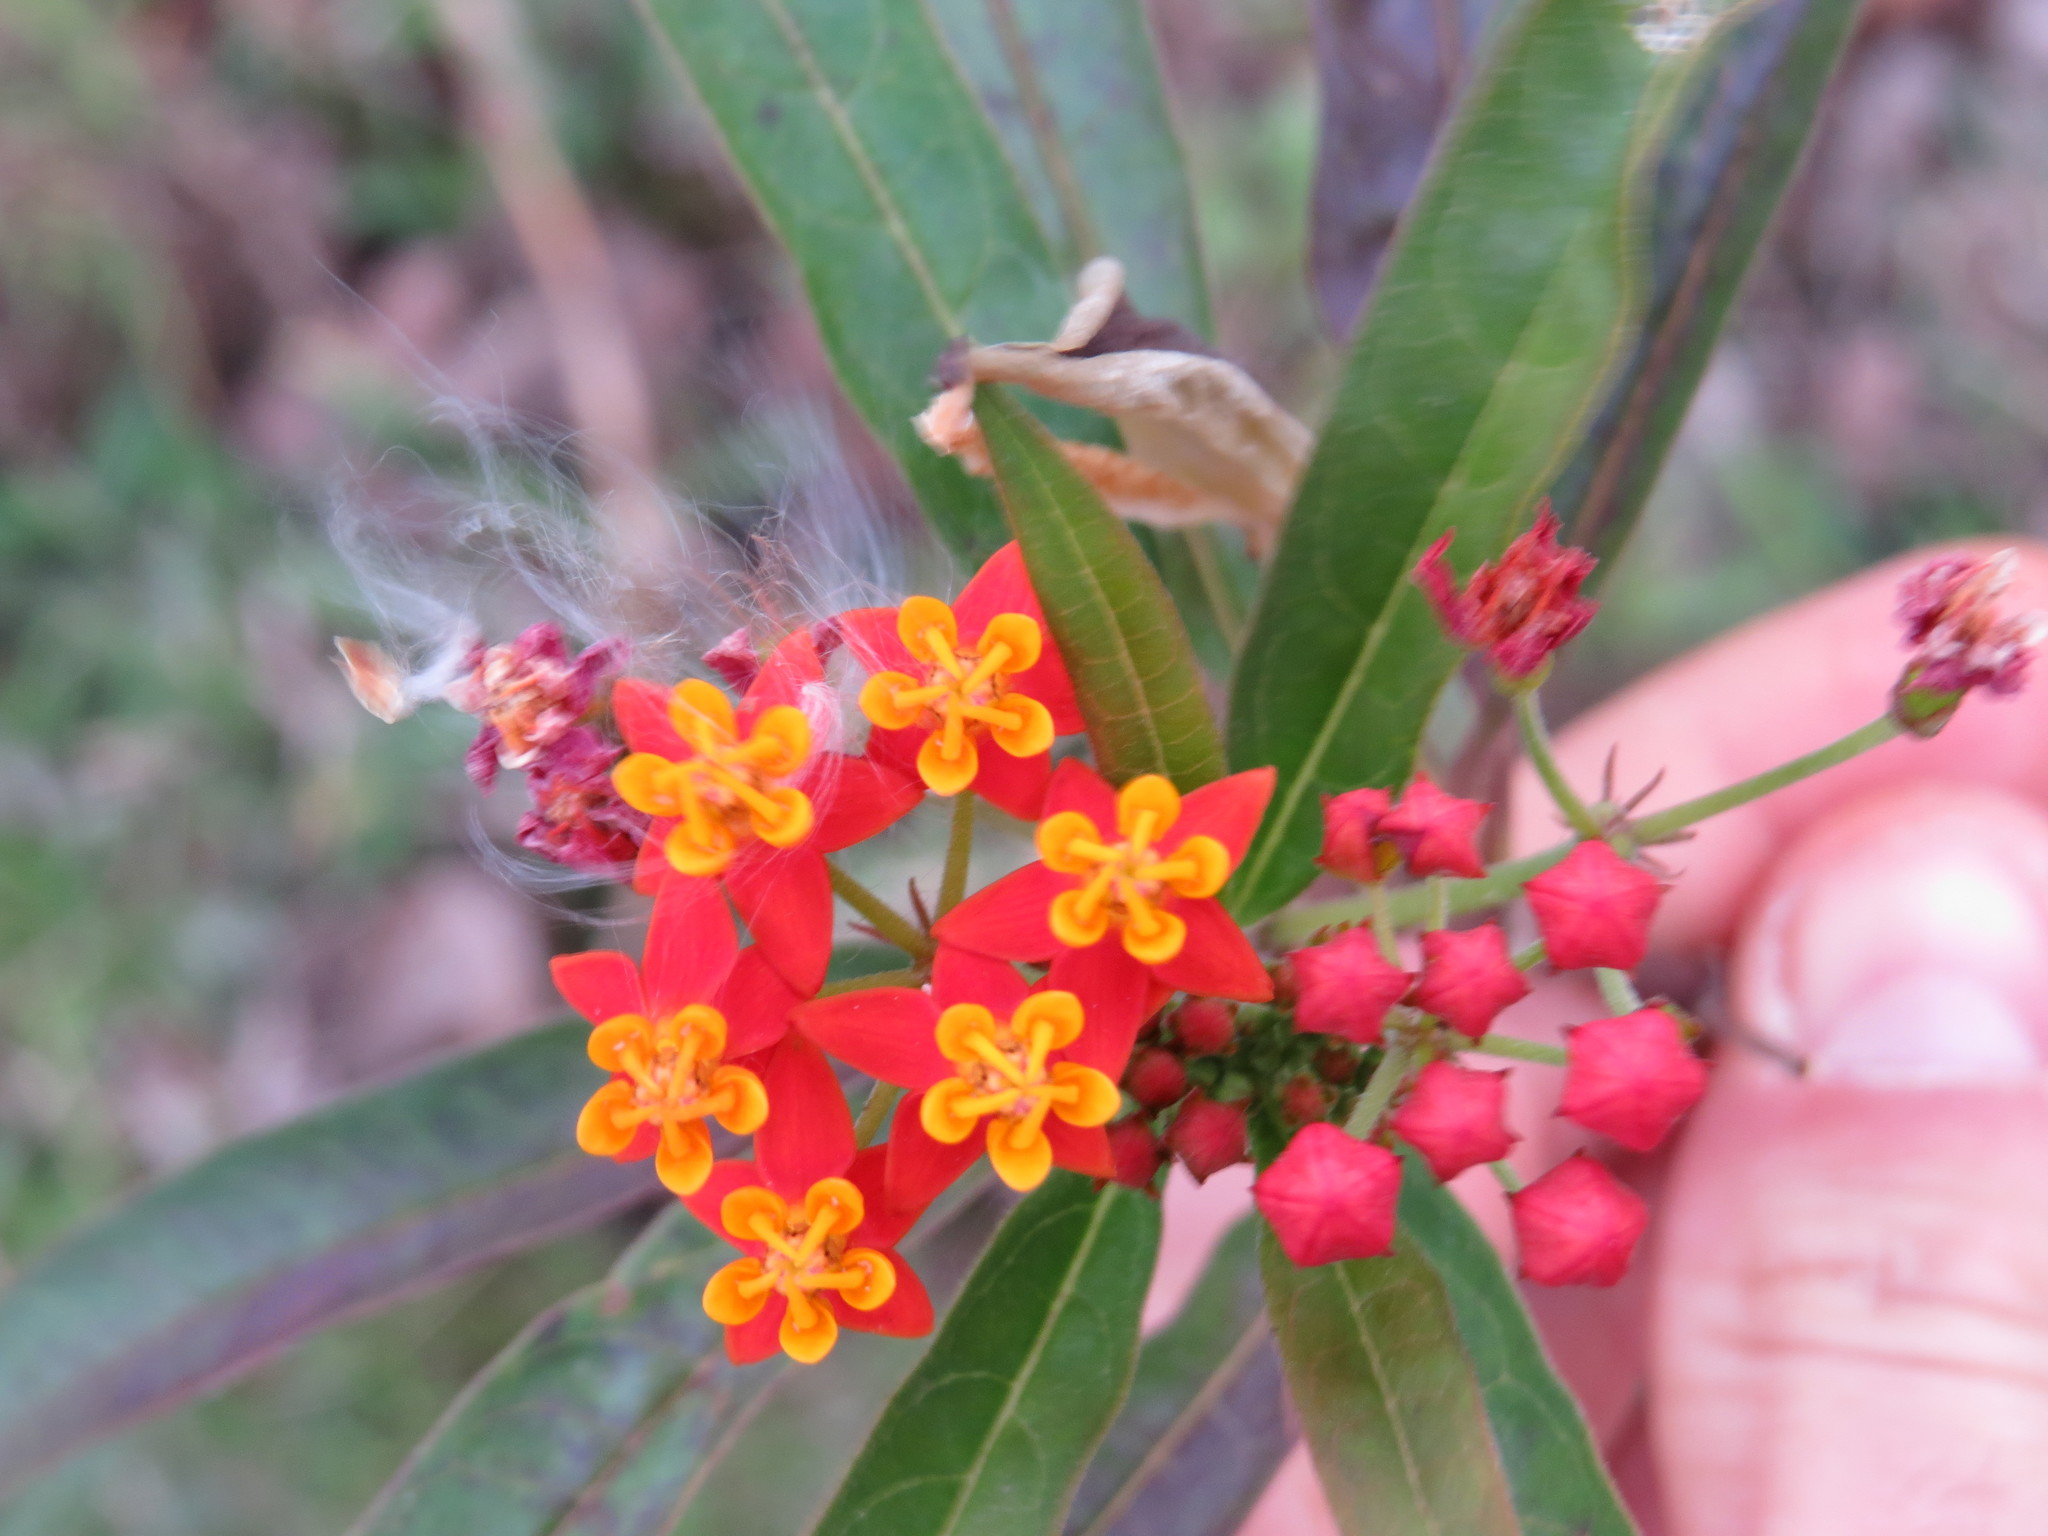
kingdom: Plantae
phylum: Tracheophyta
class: Magnoliopsida
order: Gentianales
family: Apocynaceae
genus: Asclepias
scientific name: Asclepias curassavica
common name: Bloodflower
